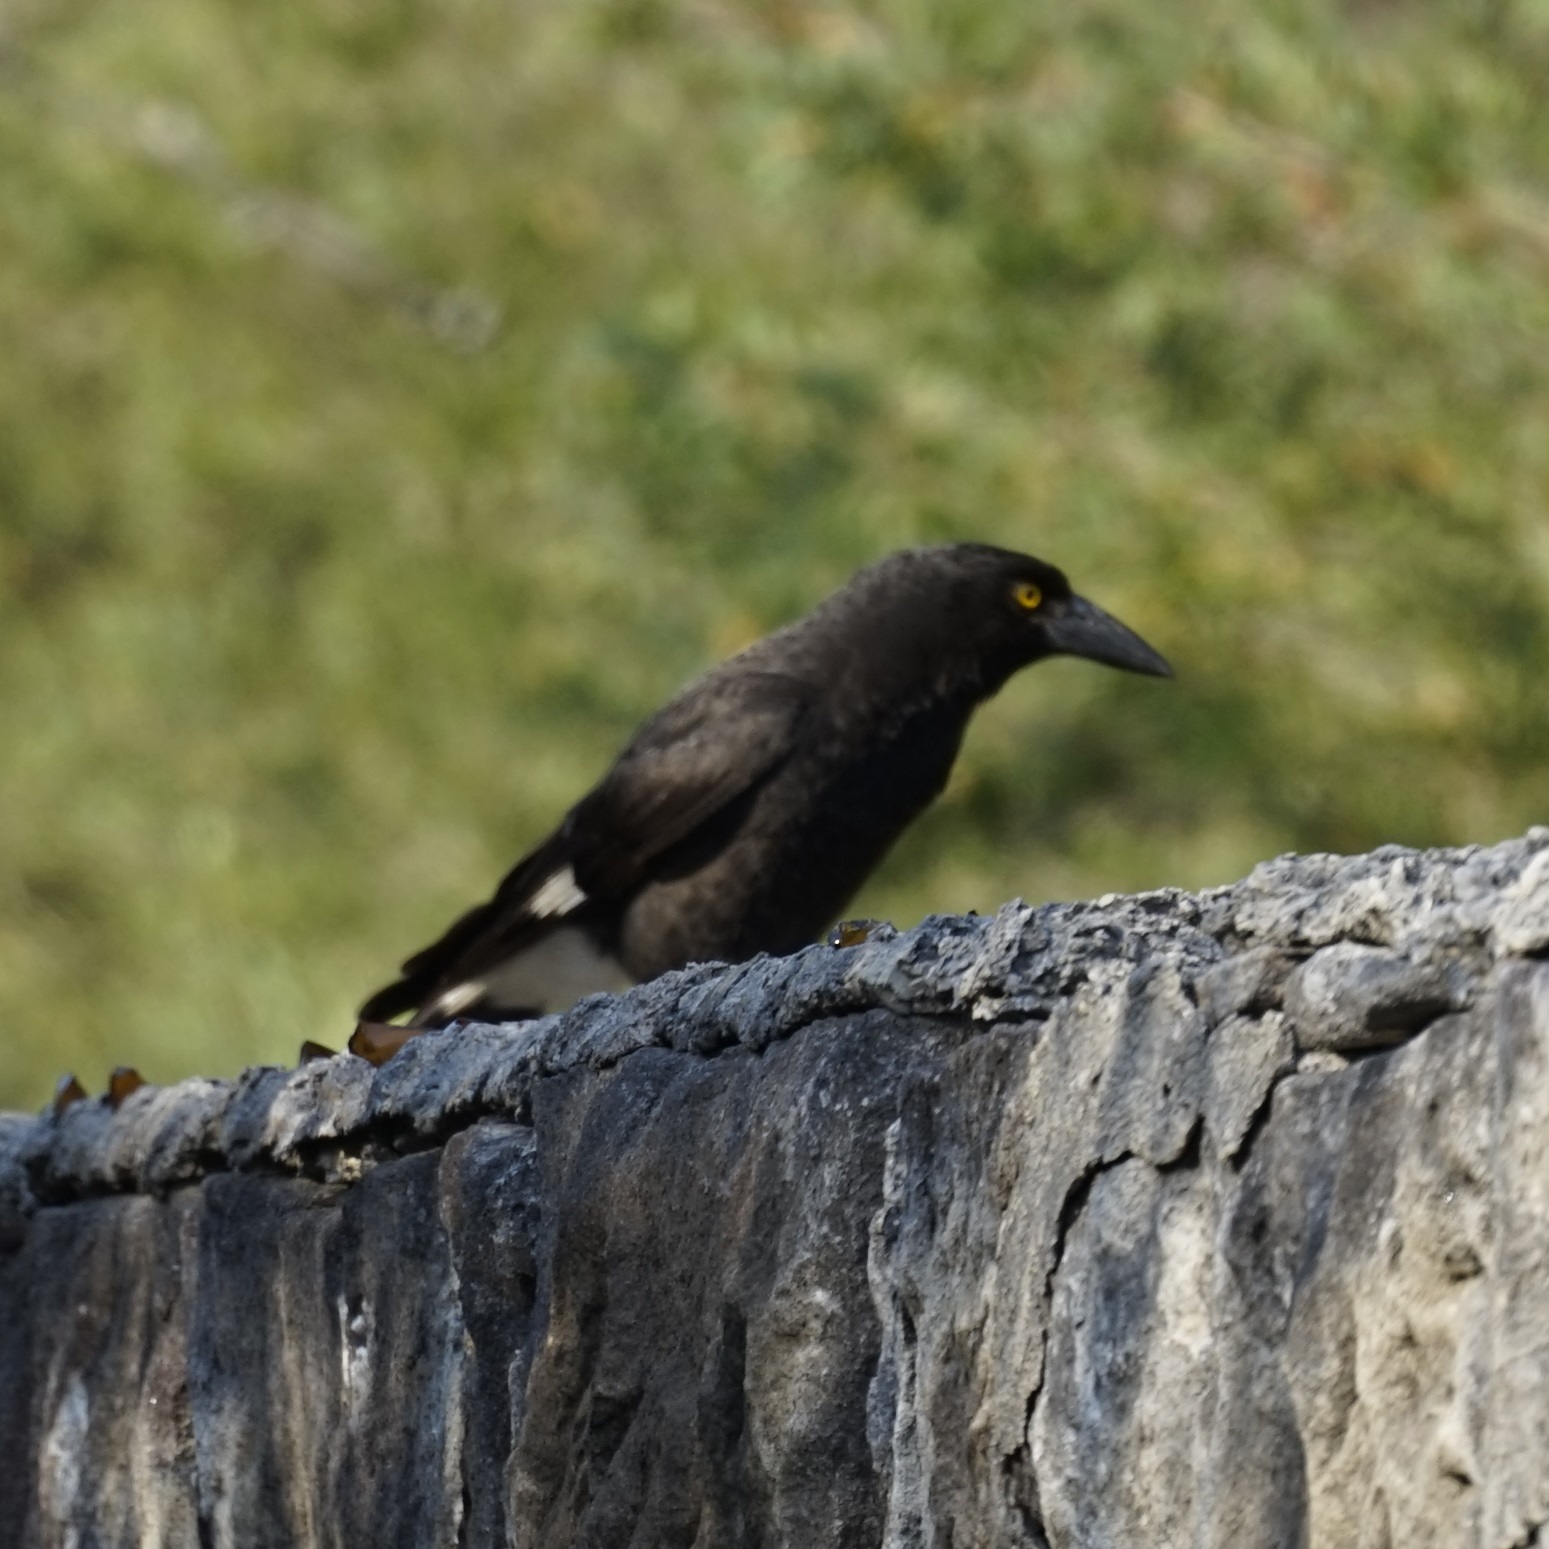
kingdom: Animalia
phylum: Chordata
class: Aves
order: Passeriformes
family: Cracticidae
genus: Strepera
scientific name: Strepera graculina
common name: Pied currawong
